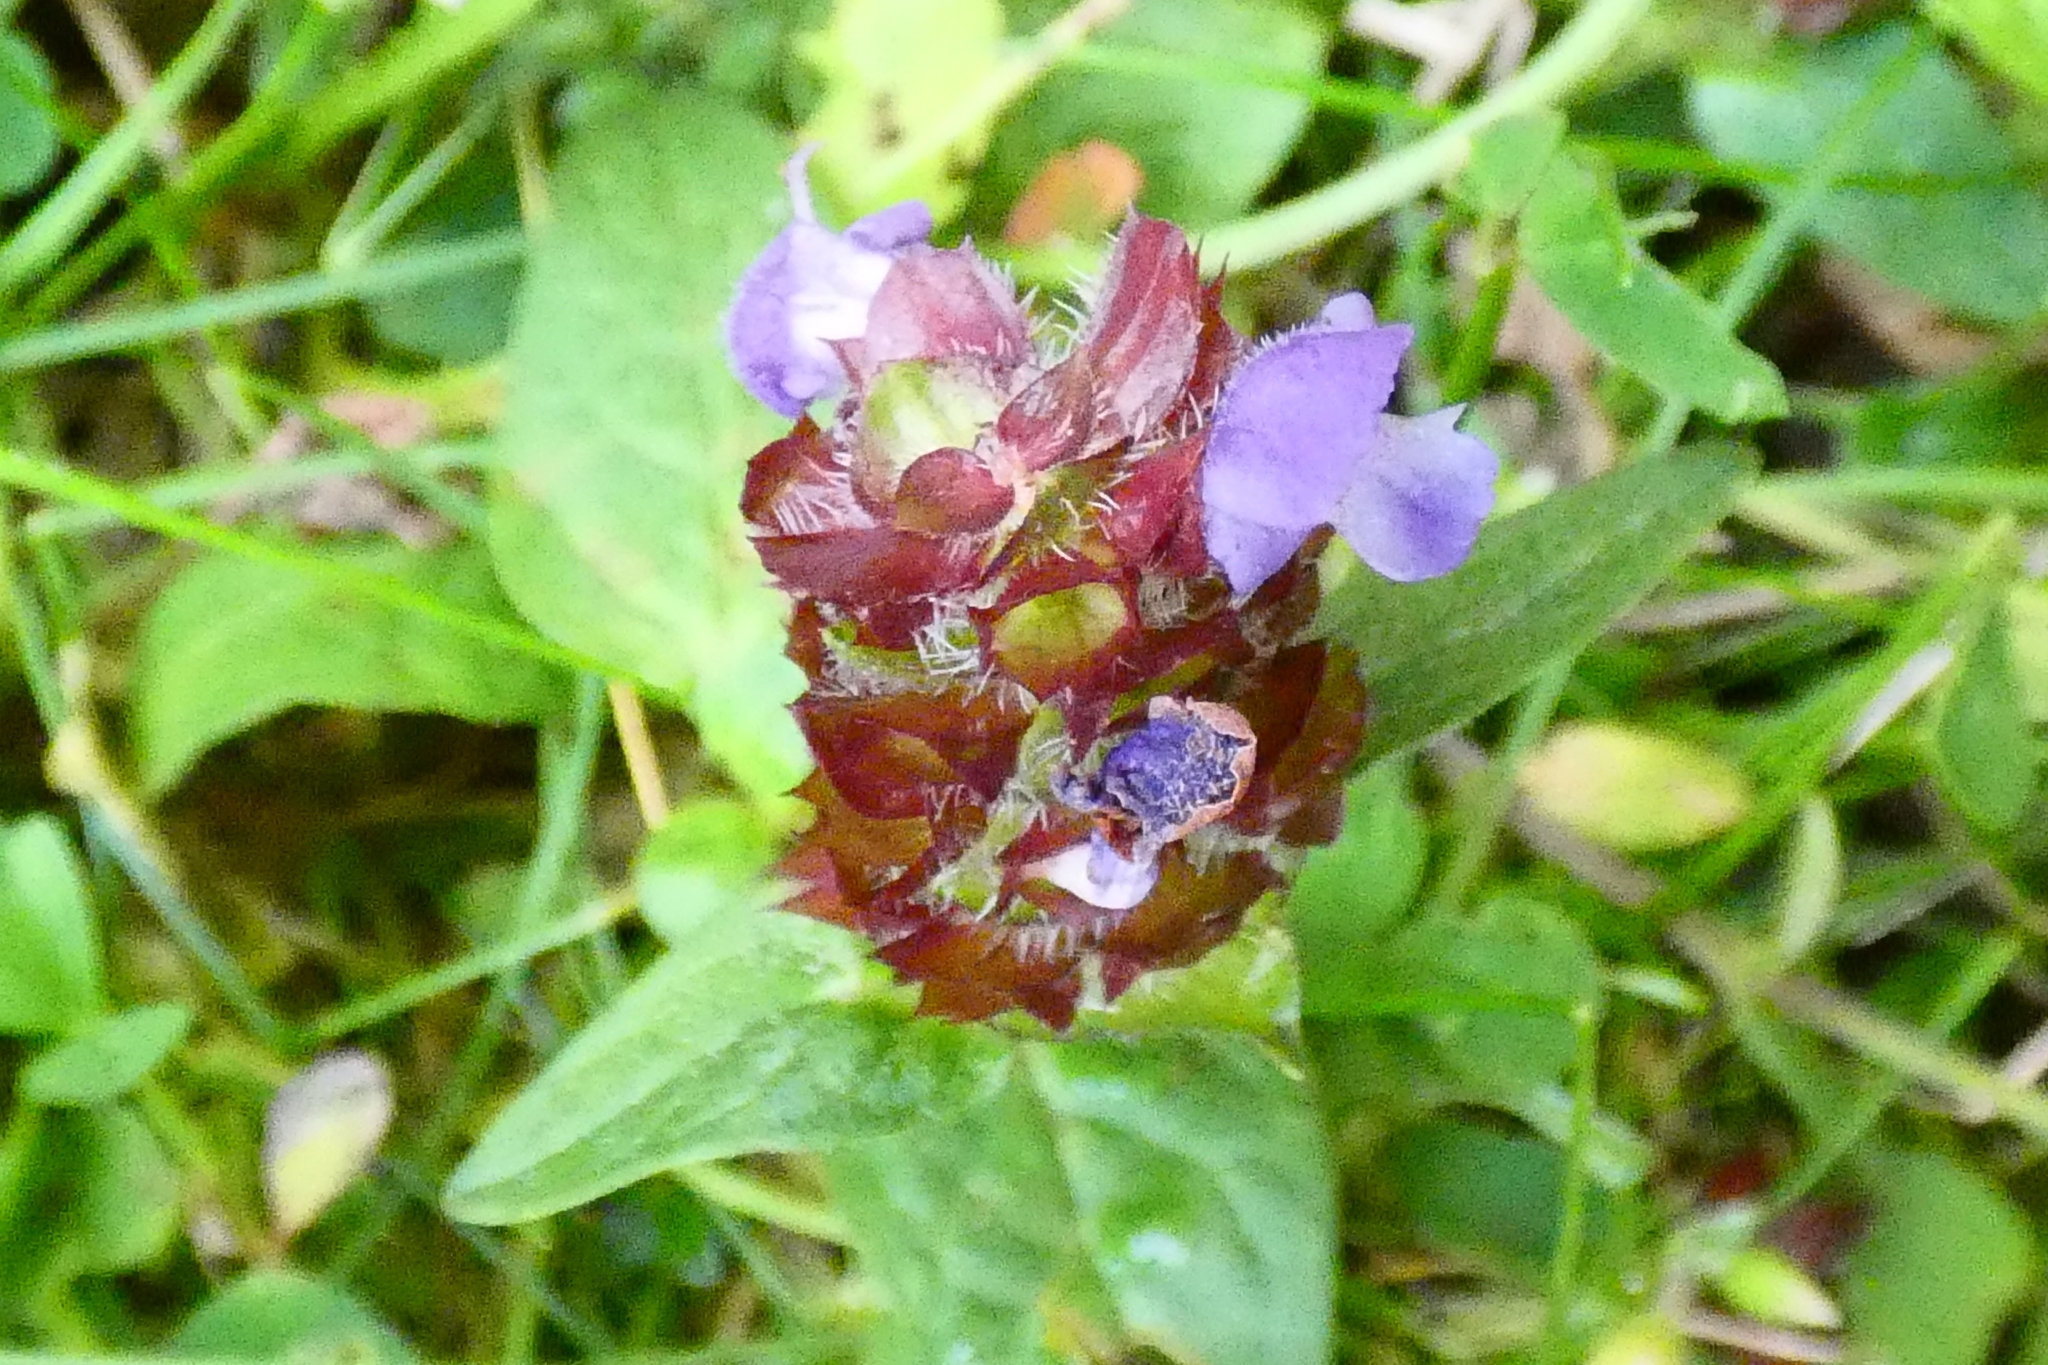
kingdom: Plantae
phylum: Tracheophyta
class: Magnoliopsida
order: Lamiales
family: Lamiaceae
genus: Prunella
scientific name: Prunella vulgaris
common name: Heal-all
